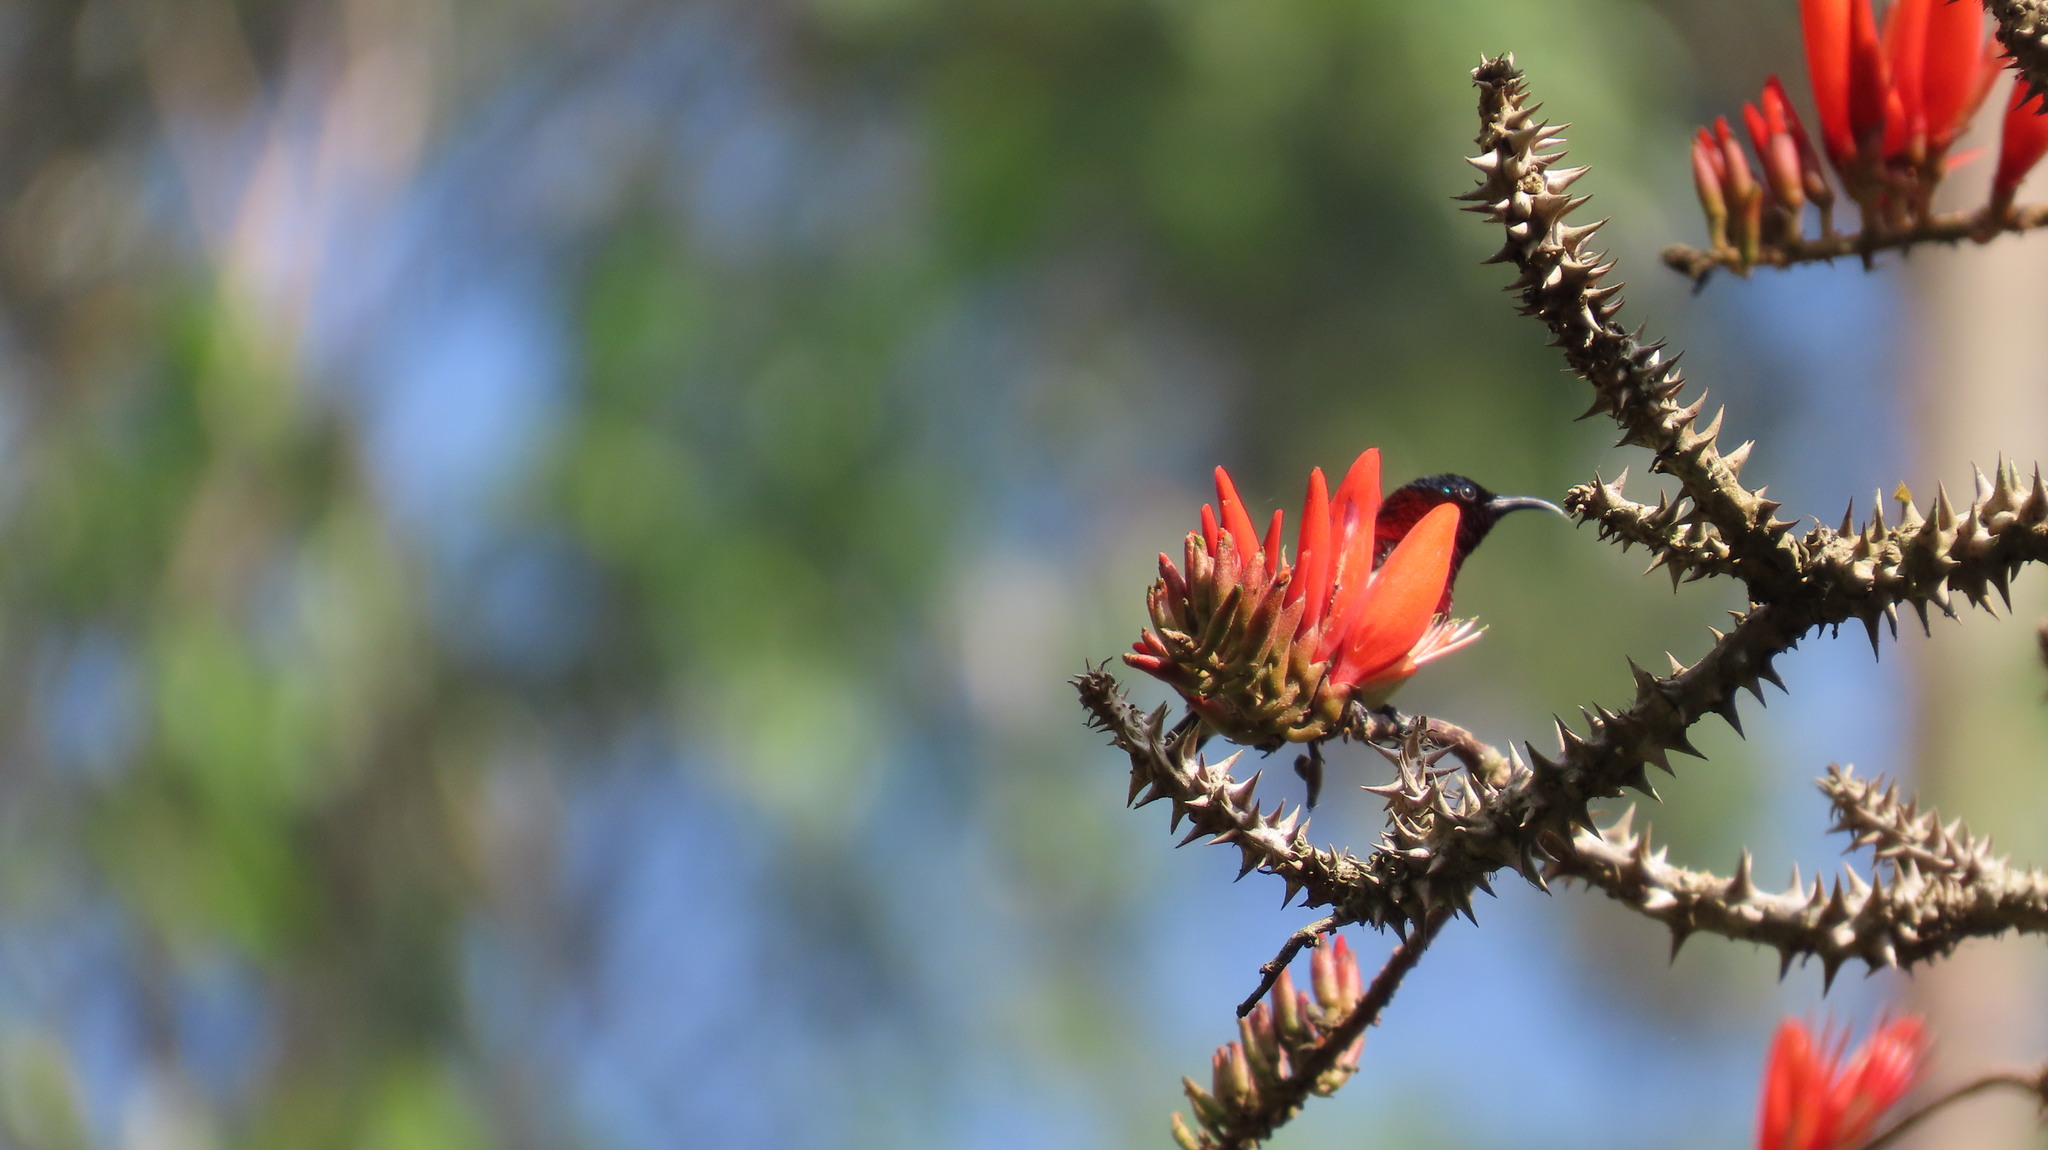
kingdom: Animalia
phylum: Chordata
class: Aves
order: Passeriformes
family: Nectariniidae
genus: Leptocoma
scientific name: Leptocoma minima
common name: Crimson-backed sunbird
